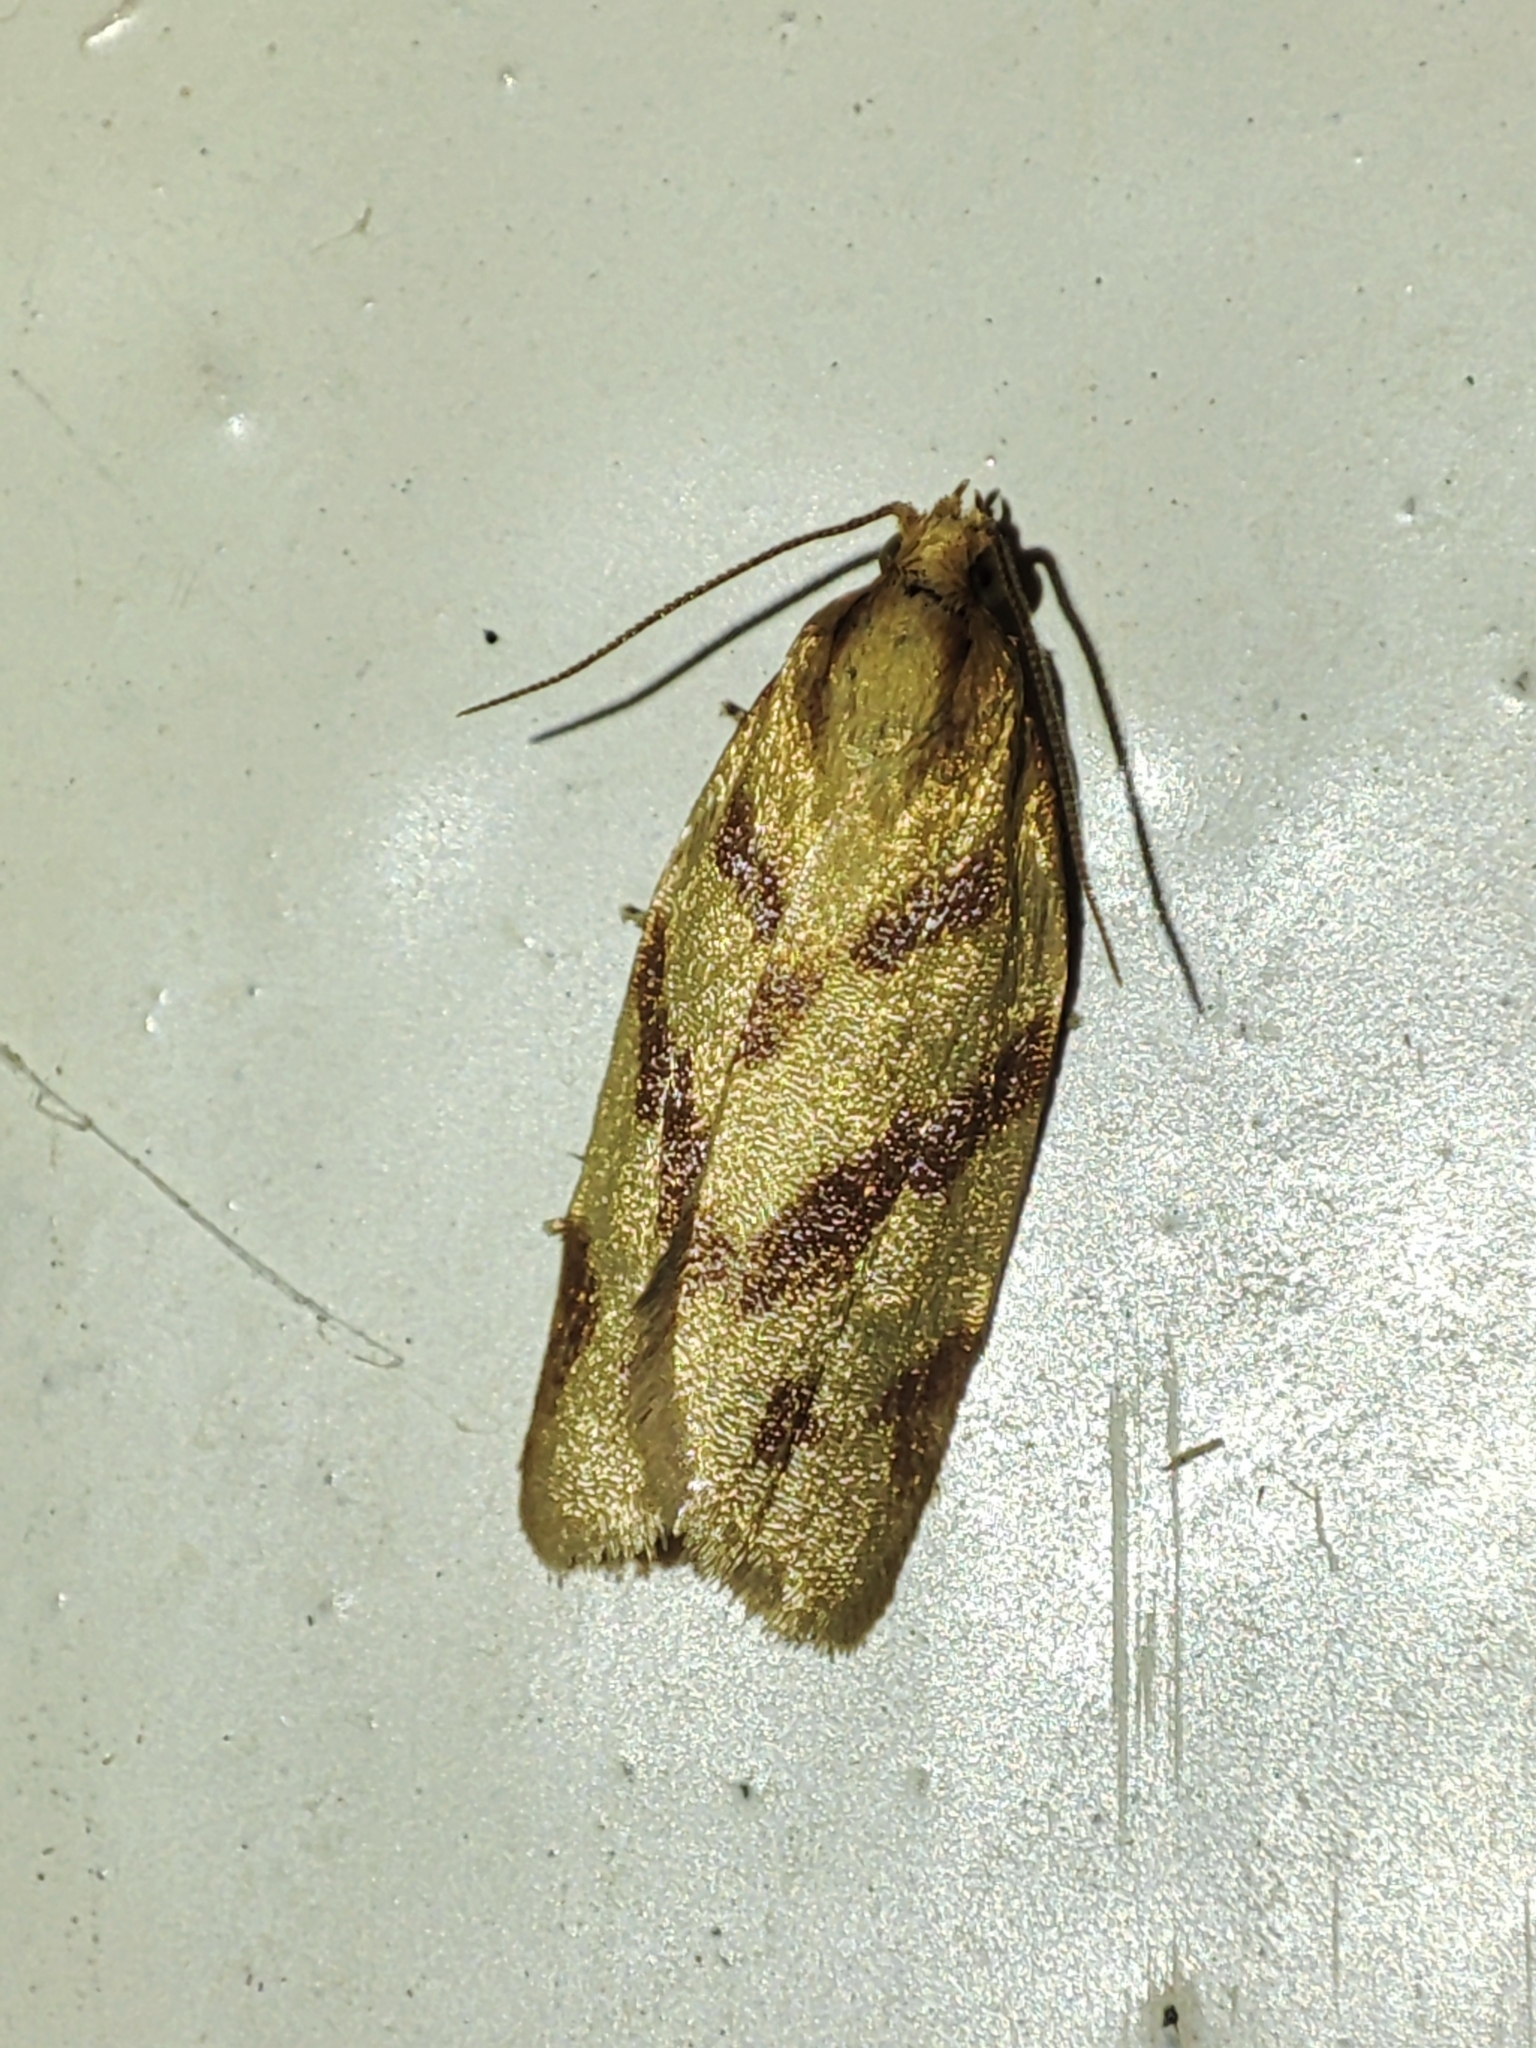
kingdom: Animalia
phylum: Arthropoda
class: Insecta
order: Lepidoptera
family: Tortricidae
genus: Clepsis
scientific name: Clepsis pallidana
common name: Sheep's-bit conch
